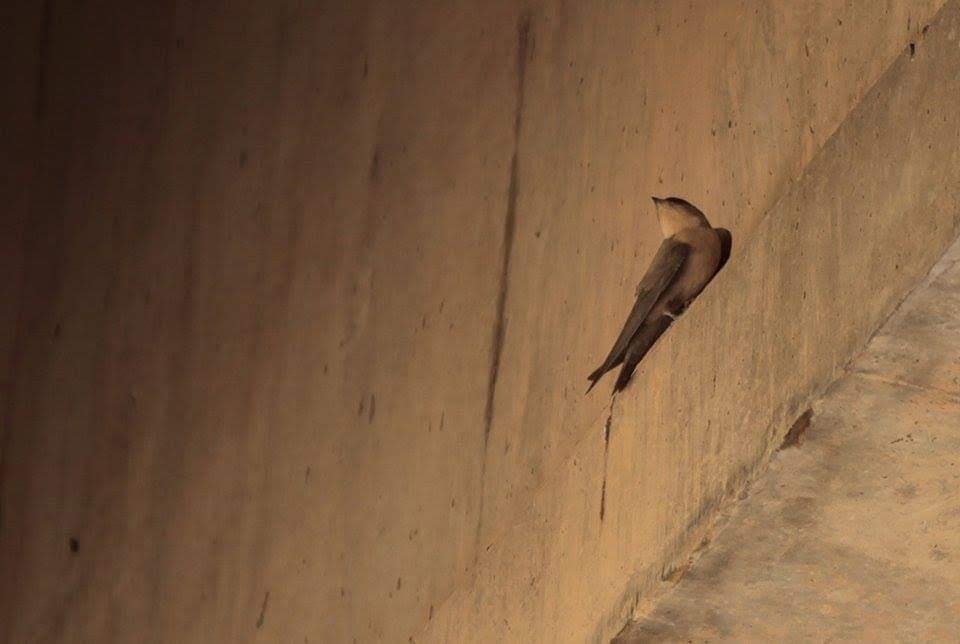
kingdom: Animalia
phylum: Chordata
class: Aves
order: Passeriformes
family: Hirundinidae
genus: Ptyonoprogne
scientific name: Ptyonoprogne fuligula
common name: Rock martin
